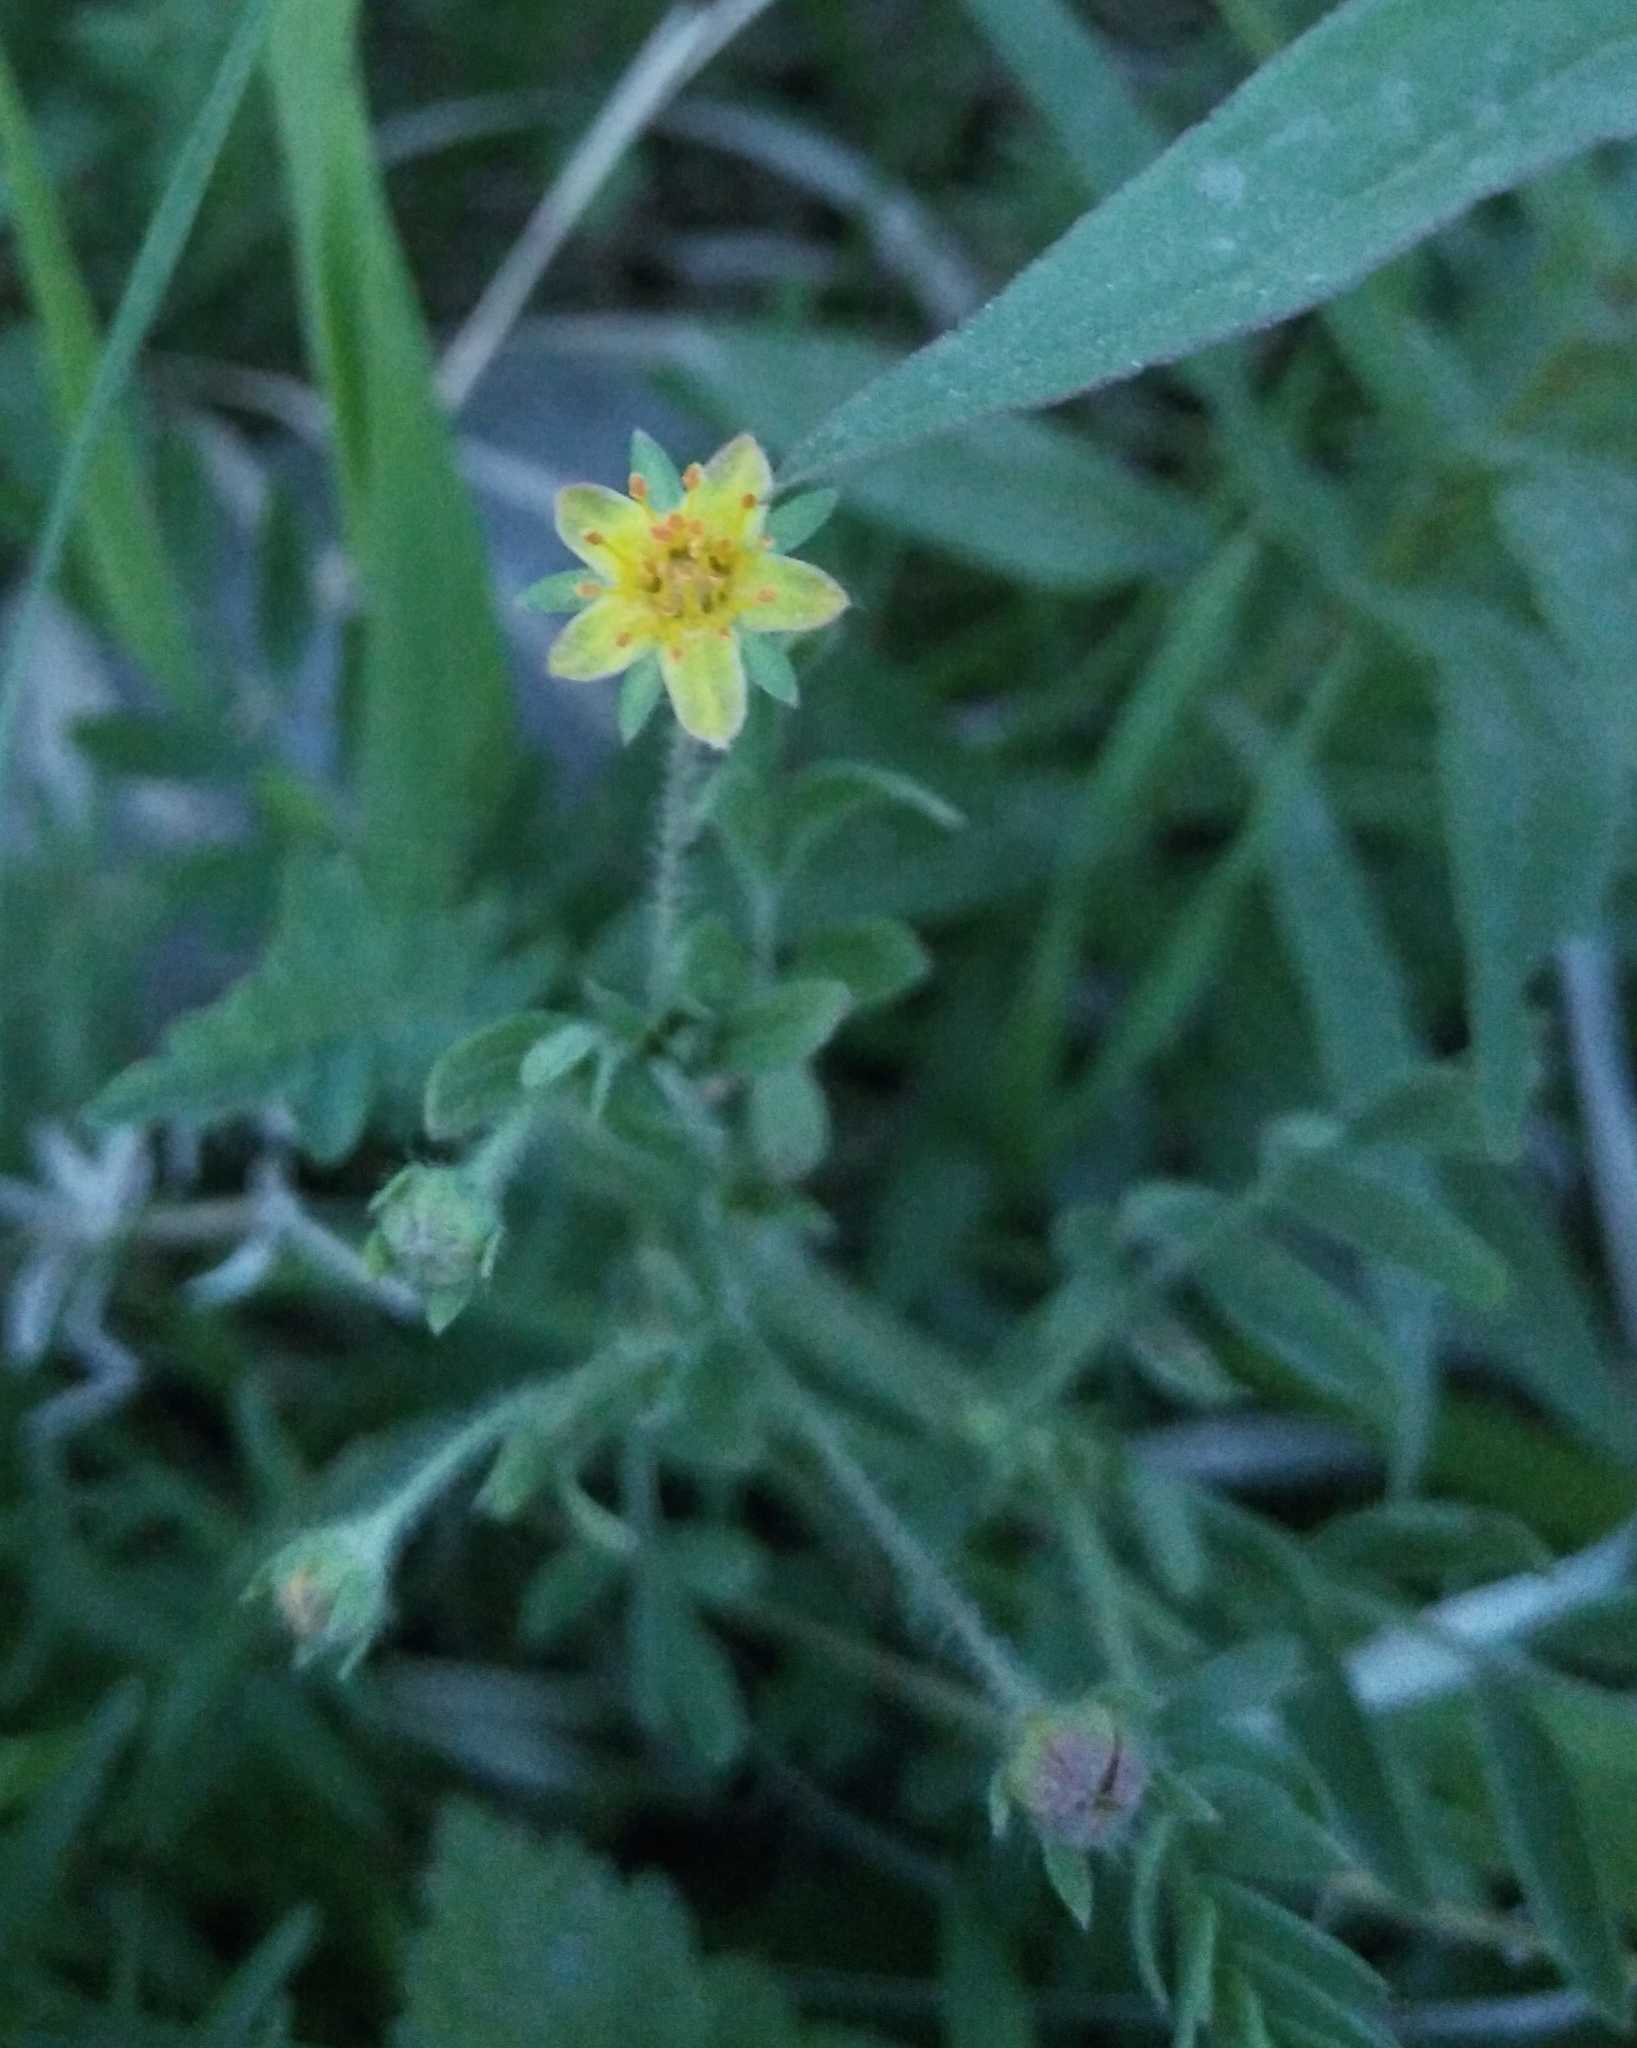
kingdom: Plantae
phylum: Tracheophyta
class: Magnoliopsida
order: Rosales
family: Rosaceae
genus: Sibbaldianthe
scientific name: Sibbaldianthe bifurca
